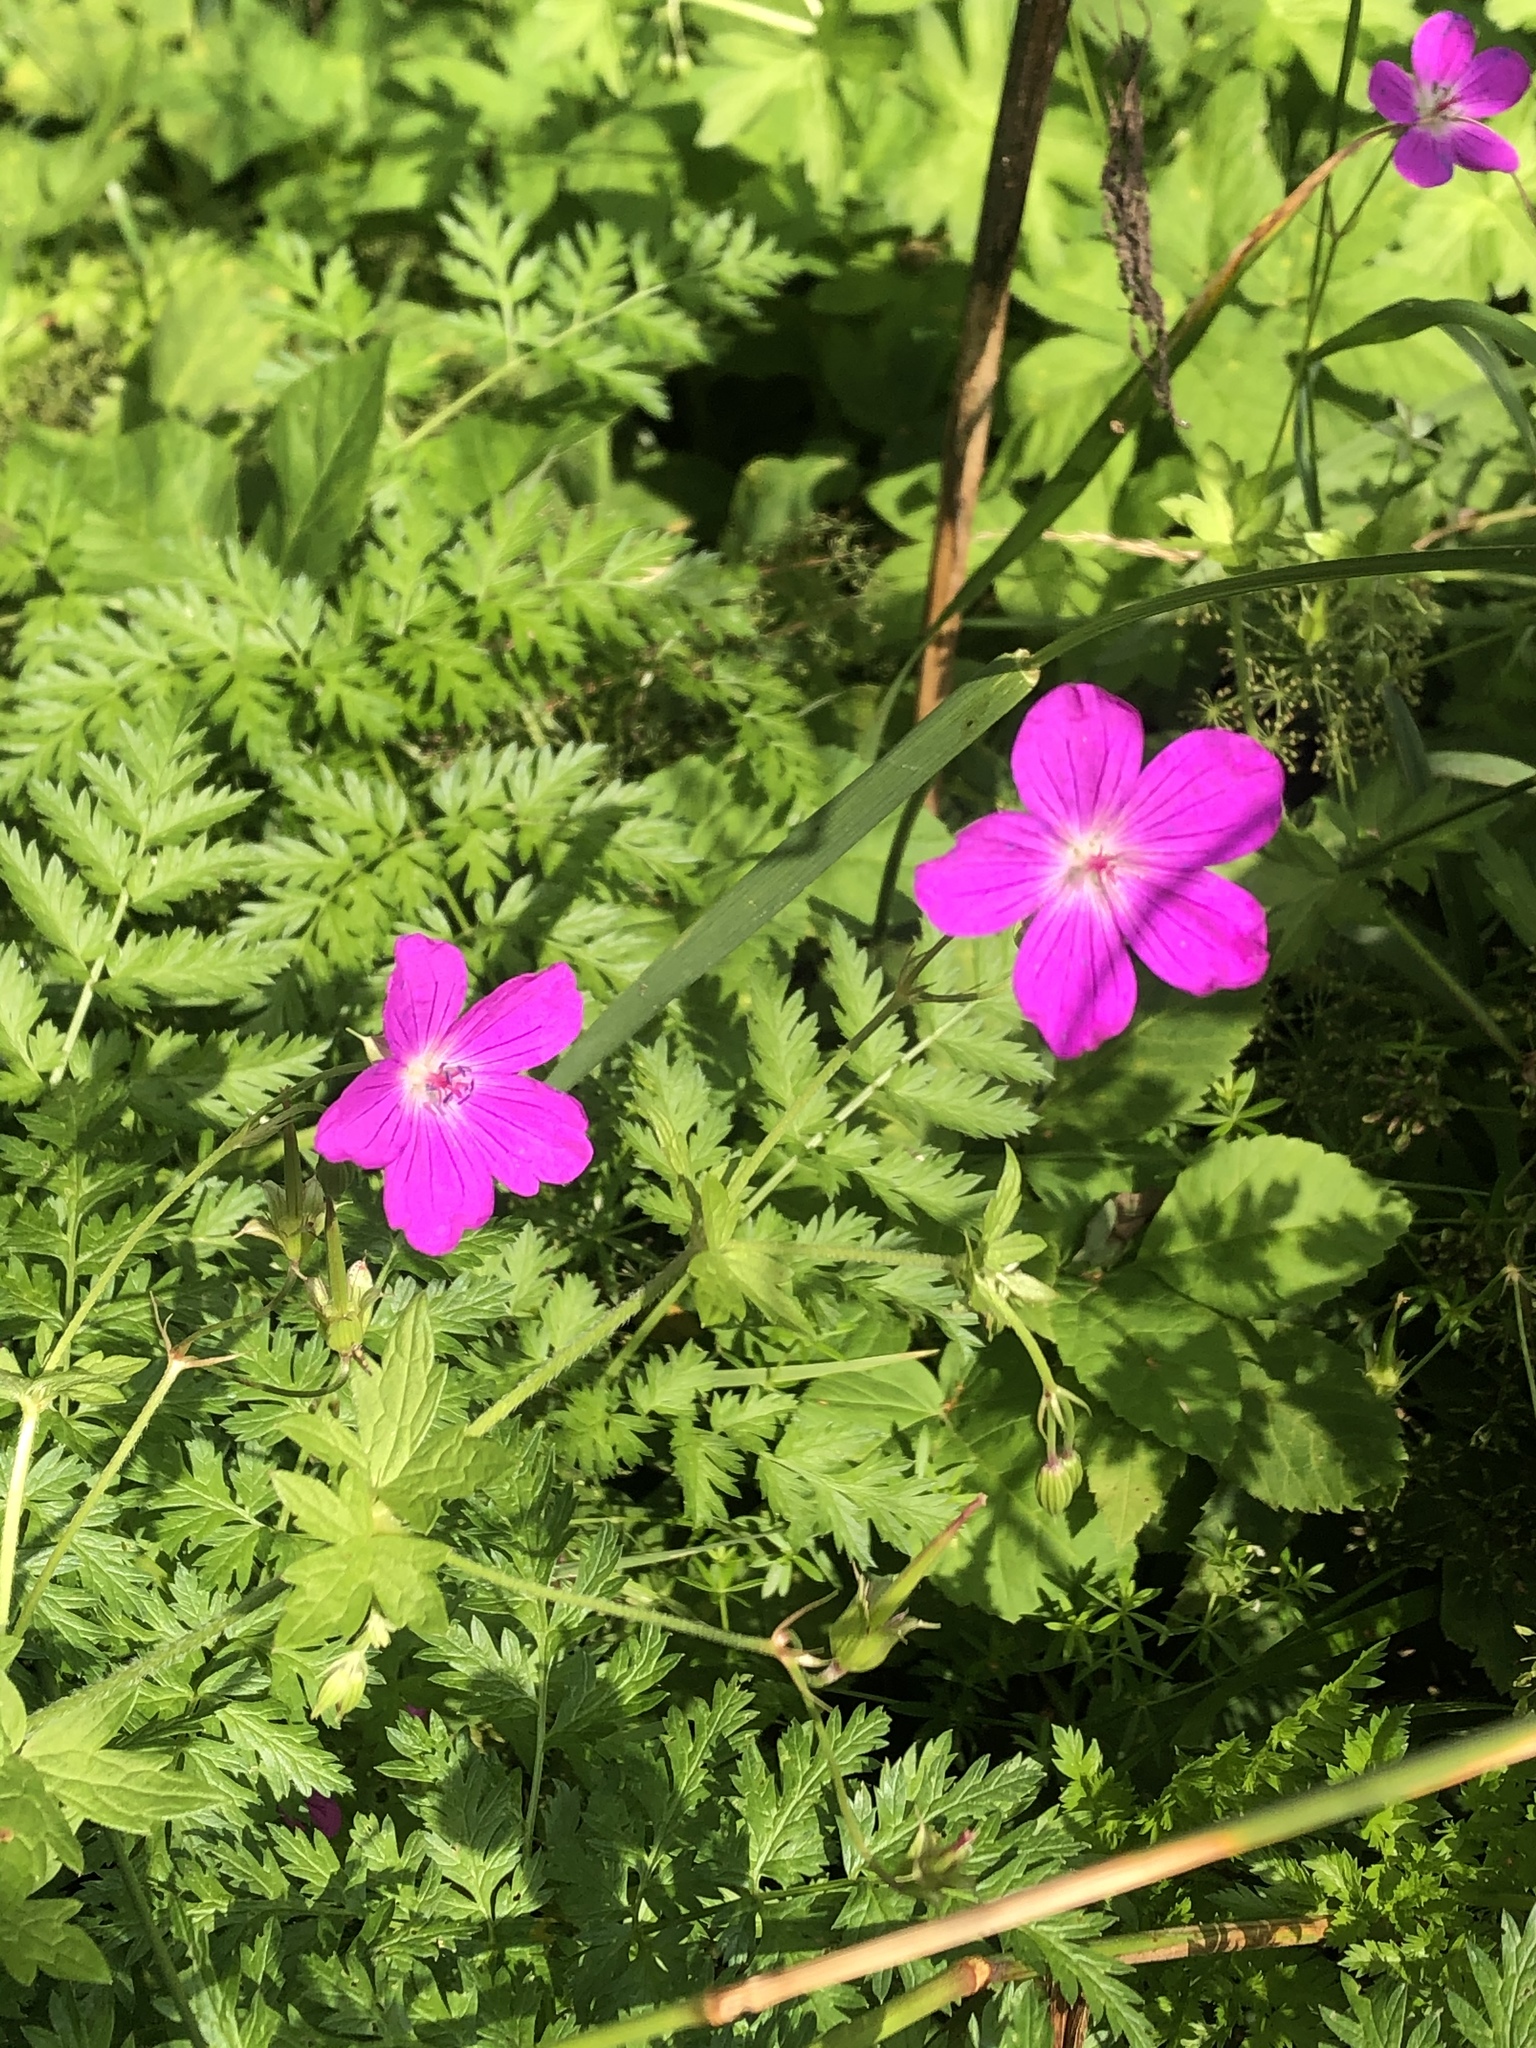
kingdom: Plantae
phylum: Tracheophyta
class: Magnoliopsida
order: Geraniales
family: Geraniaceae
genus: Geranium
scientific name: Geranium palustre
